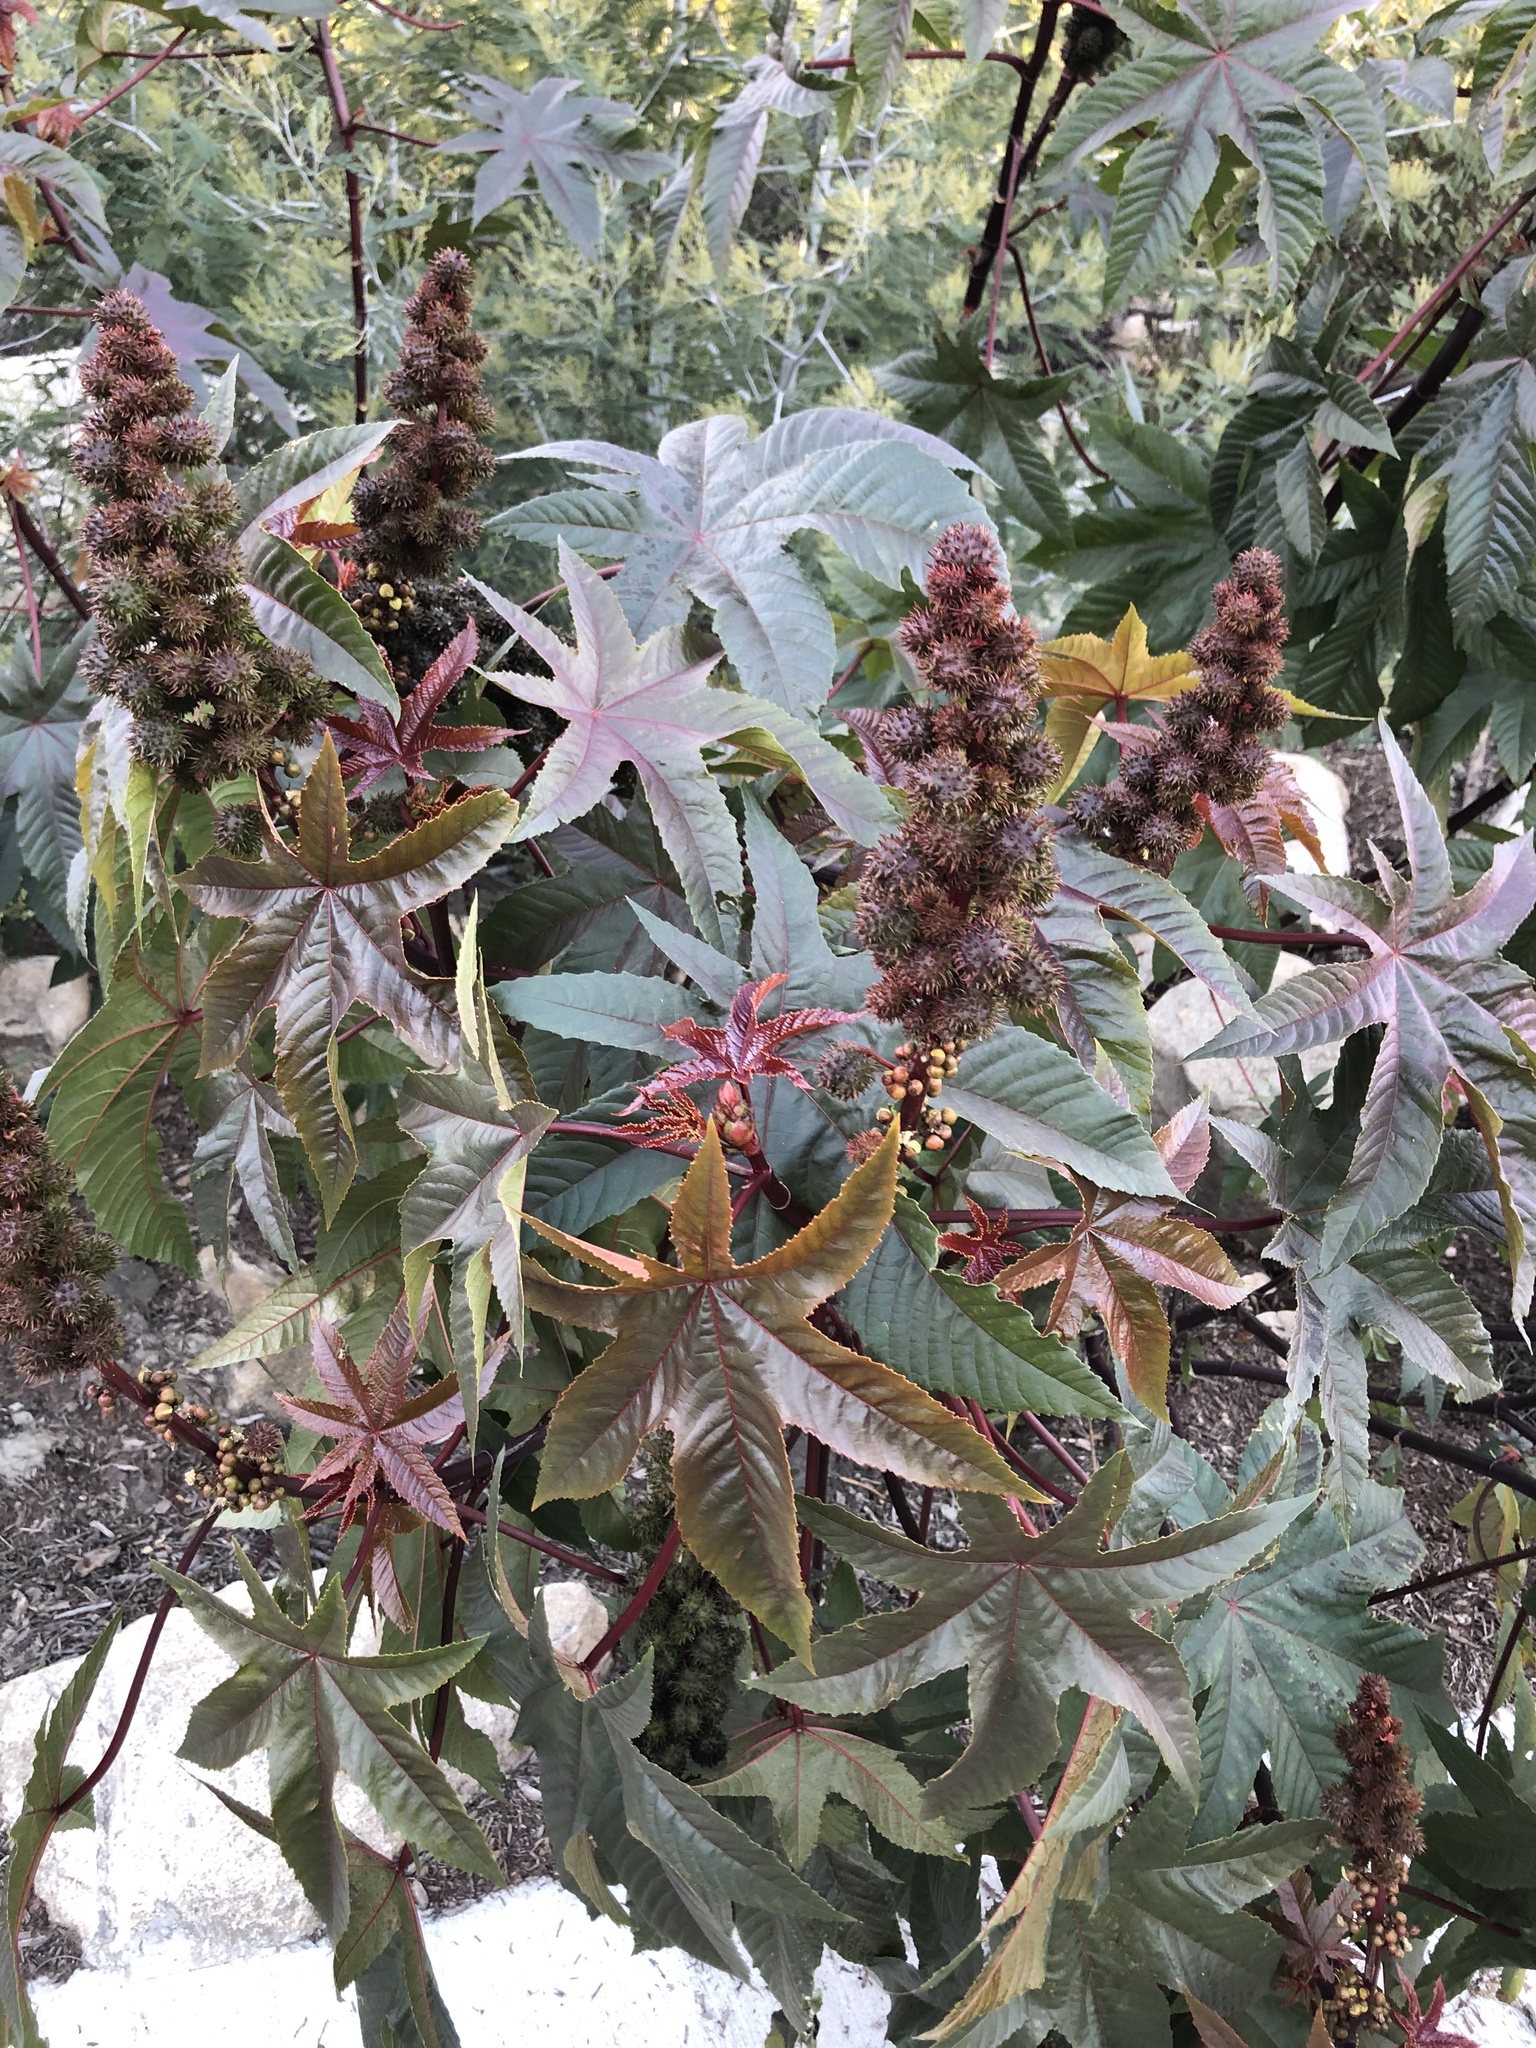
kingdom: Plantae
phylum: Tracheophyta
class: Magnoliopsida
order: Malpighiales
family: Euphorbiaceae
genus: Ricinus
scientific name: Ricinus communis
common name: Castor-oil-plant
